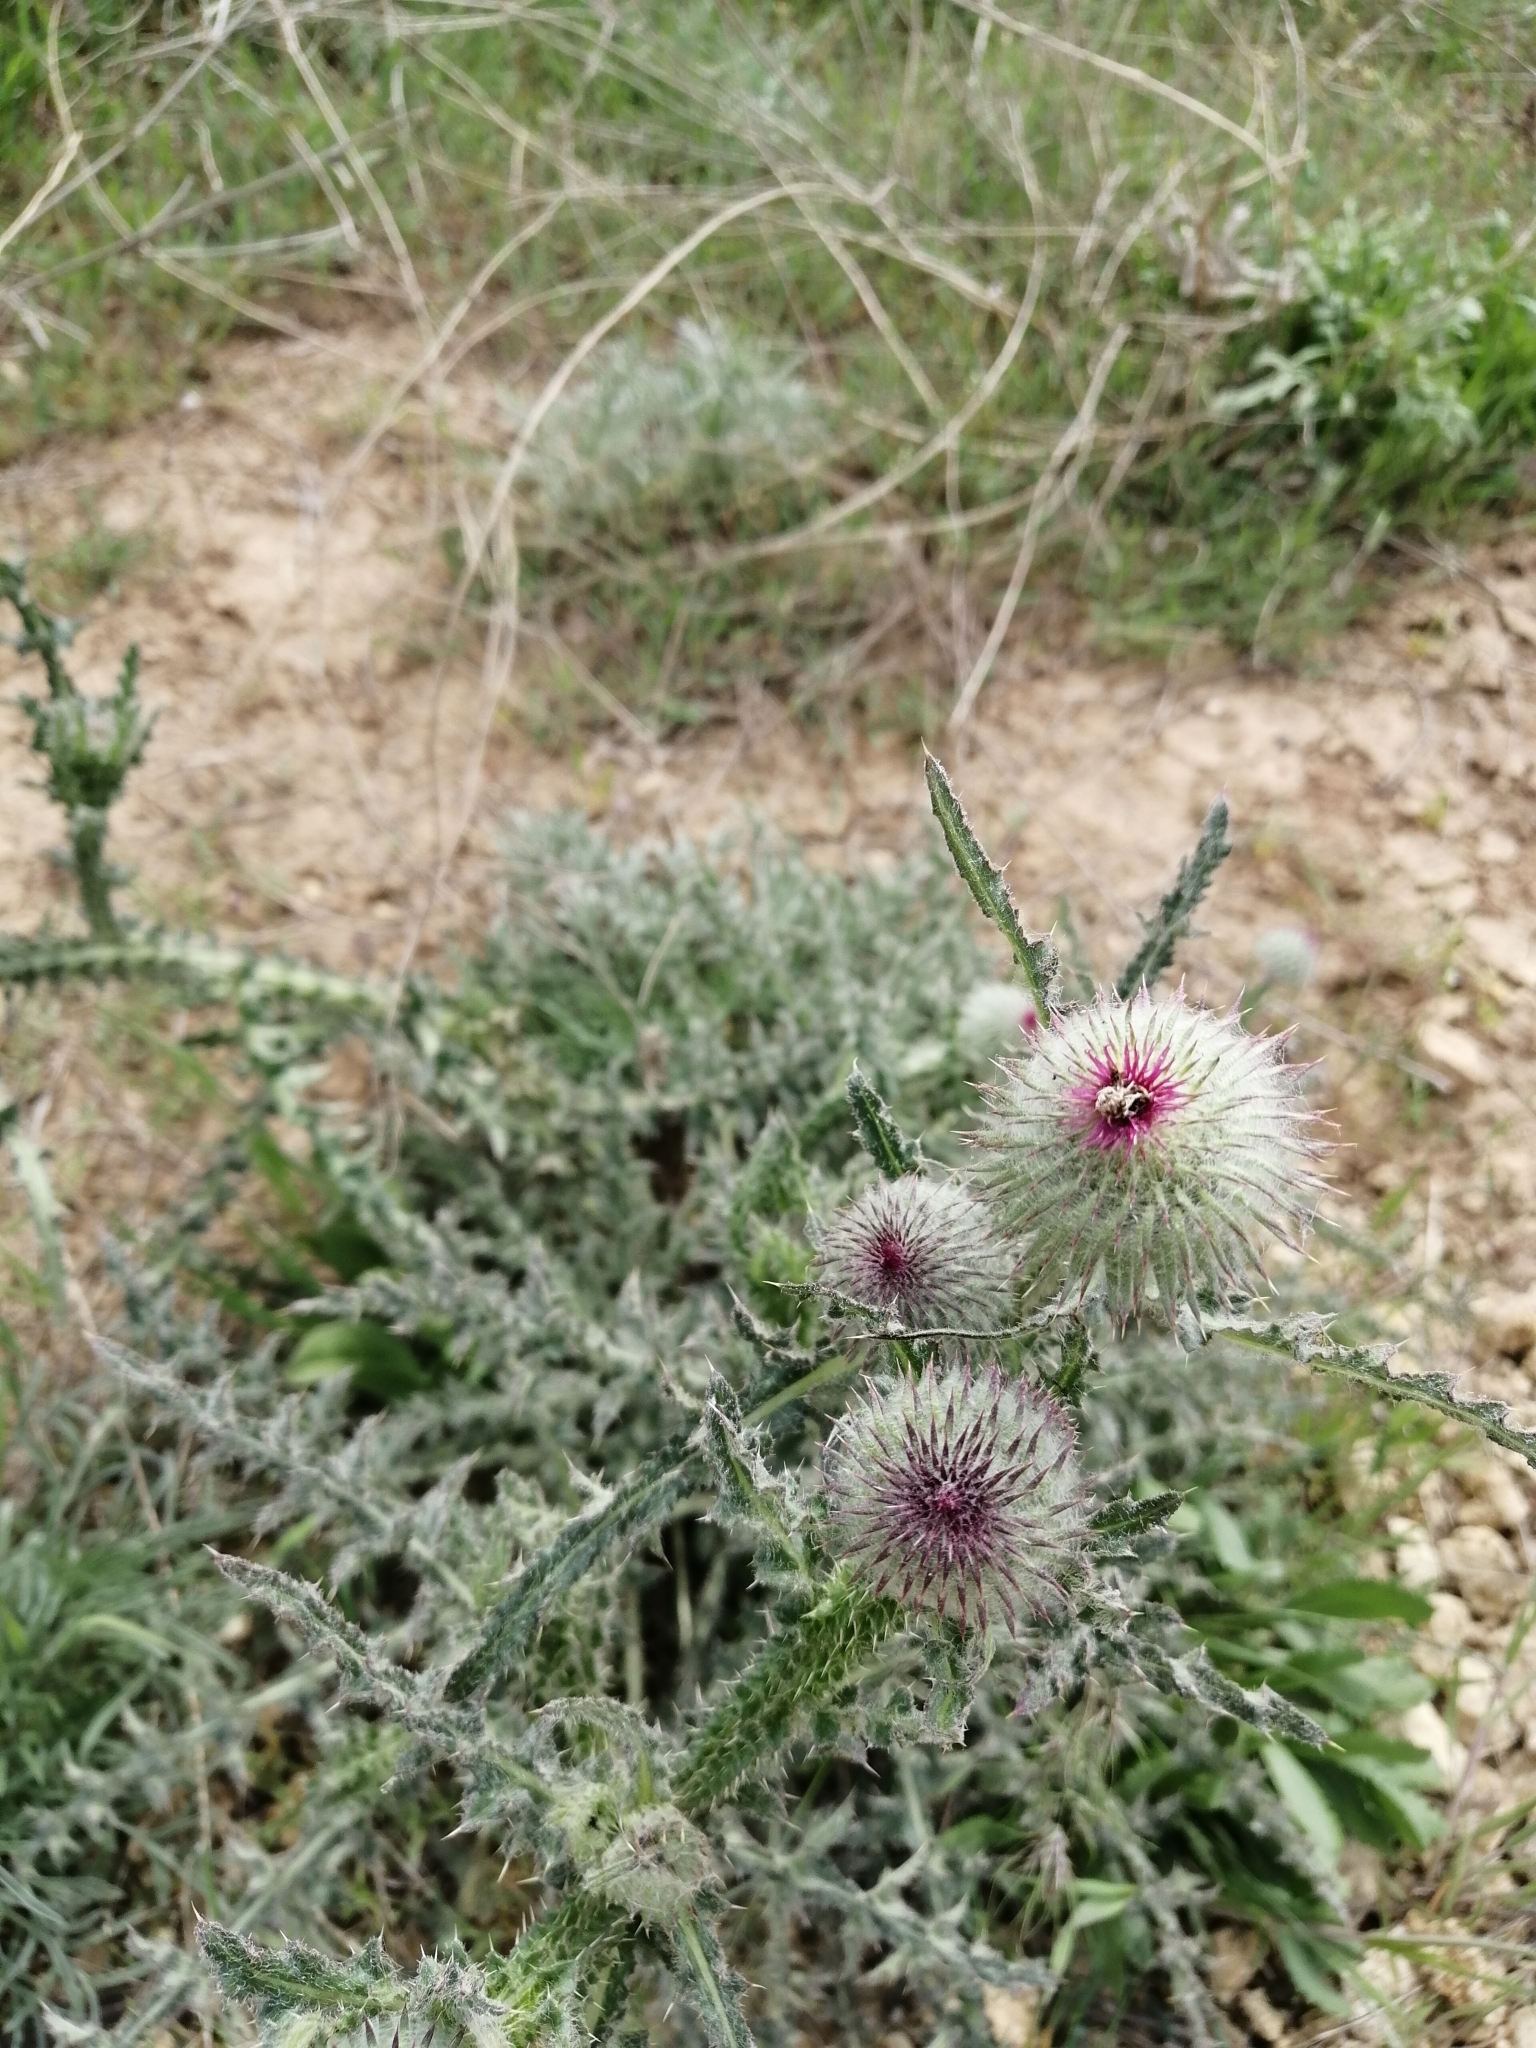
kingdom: Plantae
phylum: Tracheophyta
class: Magnoliopsida
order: Asterales
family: Asteraceae
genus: Carduus
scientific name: Carduus uncinatus
